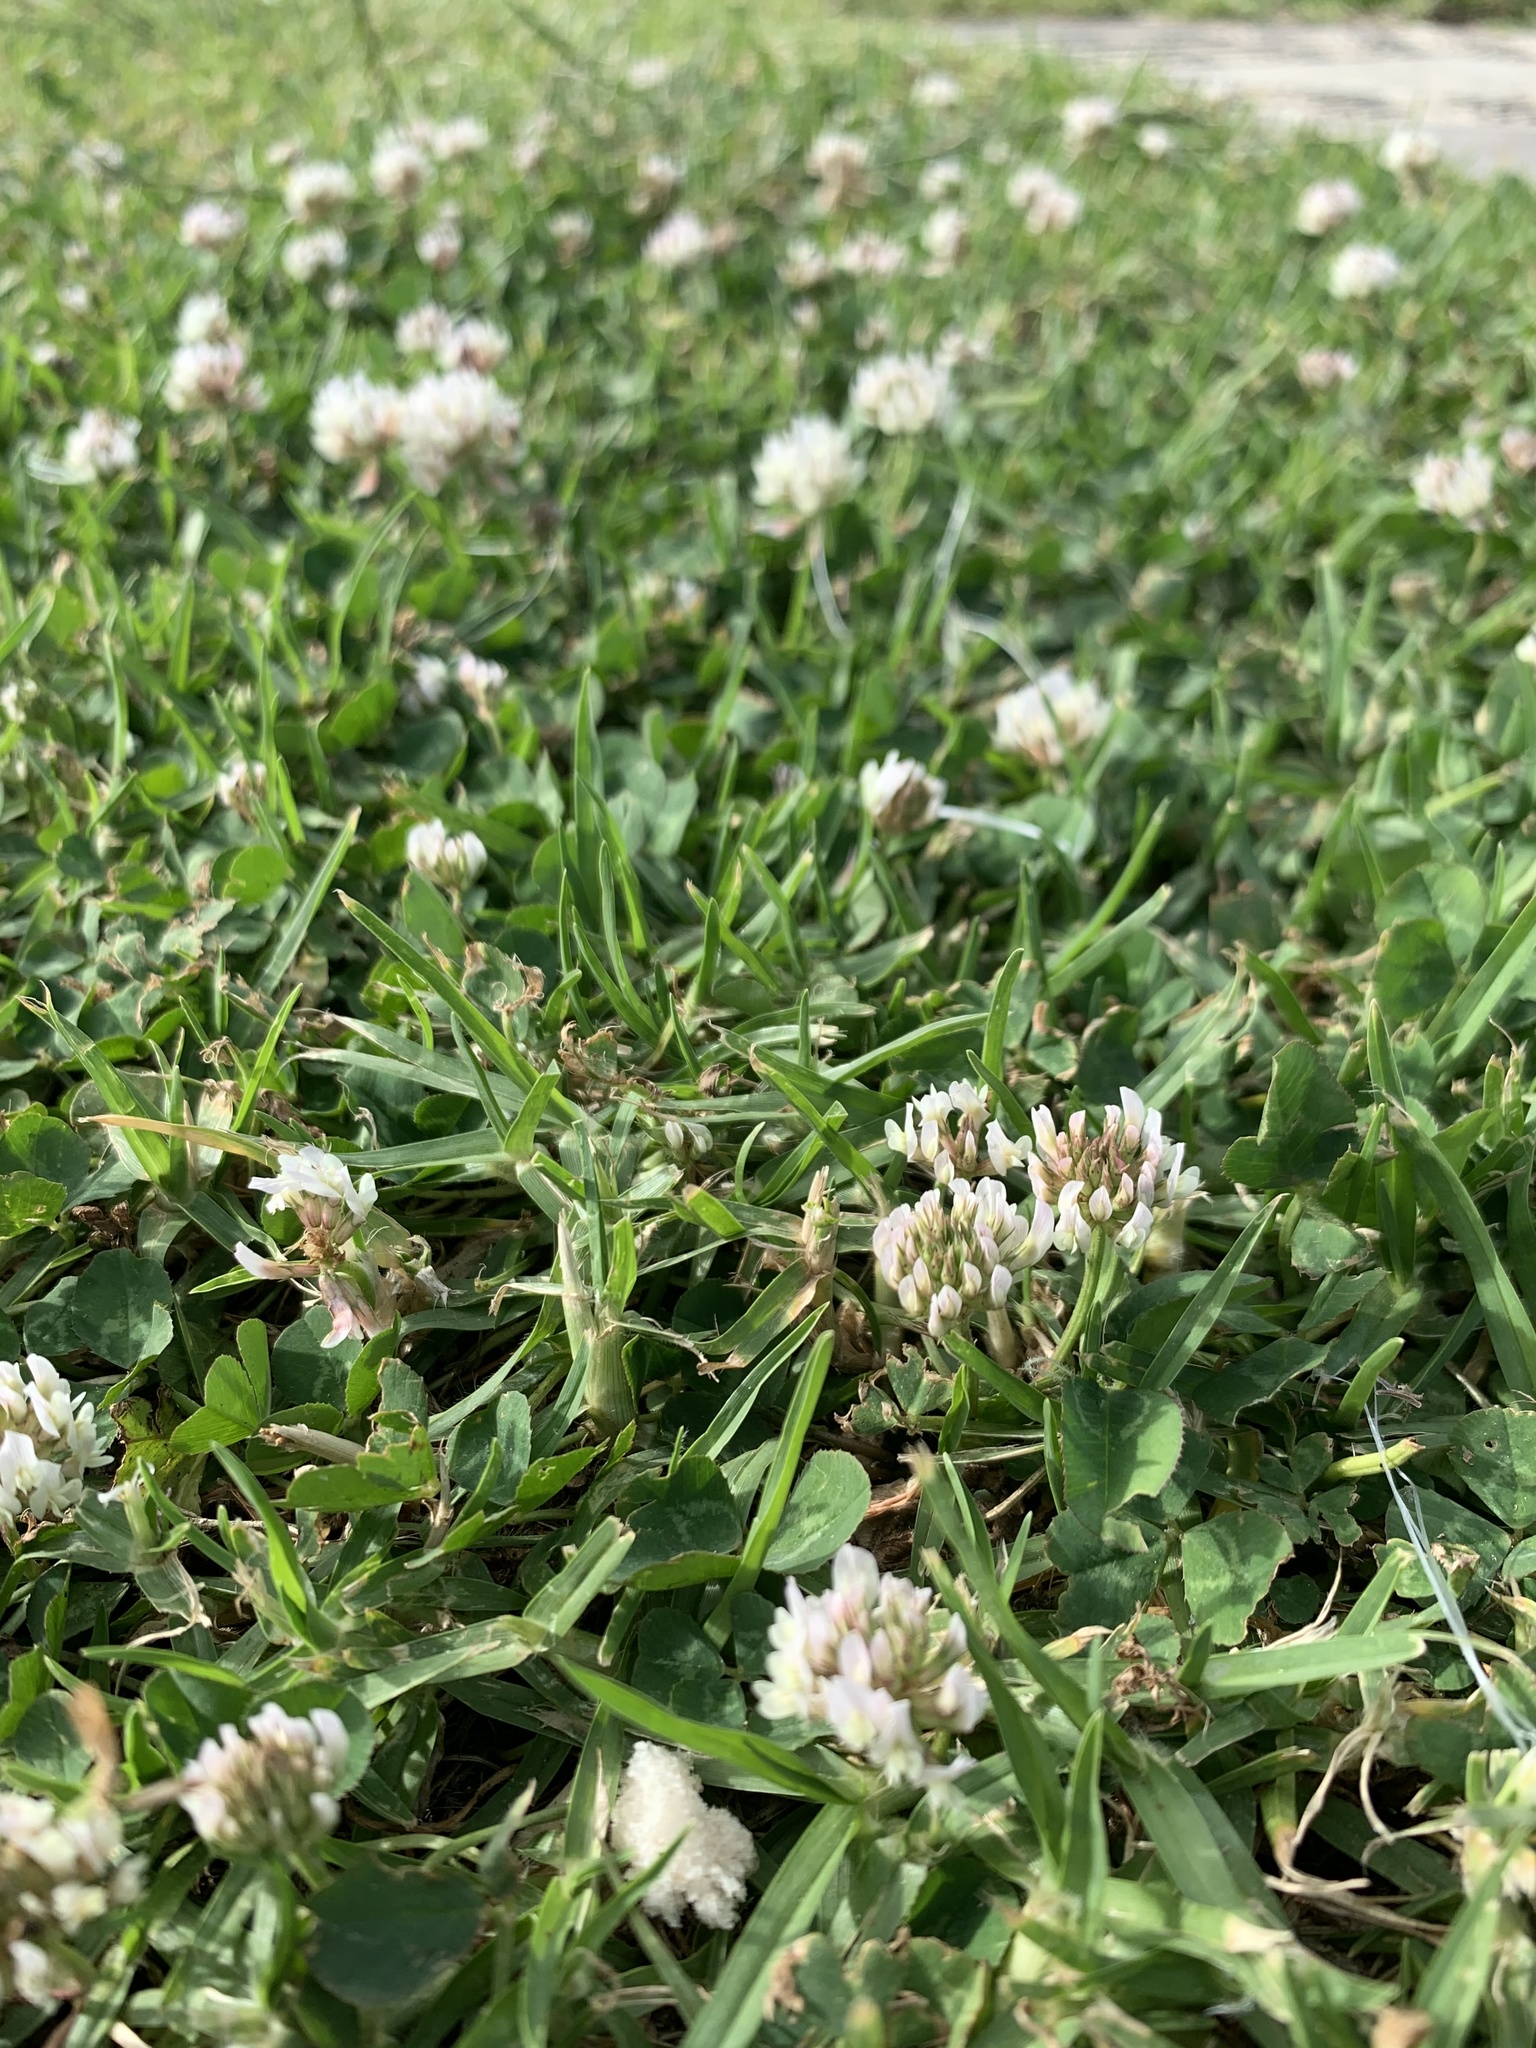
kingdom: Plantae
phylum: Tracheophyta
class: Magnoliopsida
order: Fabales
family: Fabaceae
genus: Trifolium
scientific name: Trifolium repens
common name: White clover
